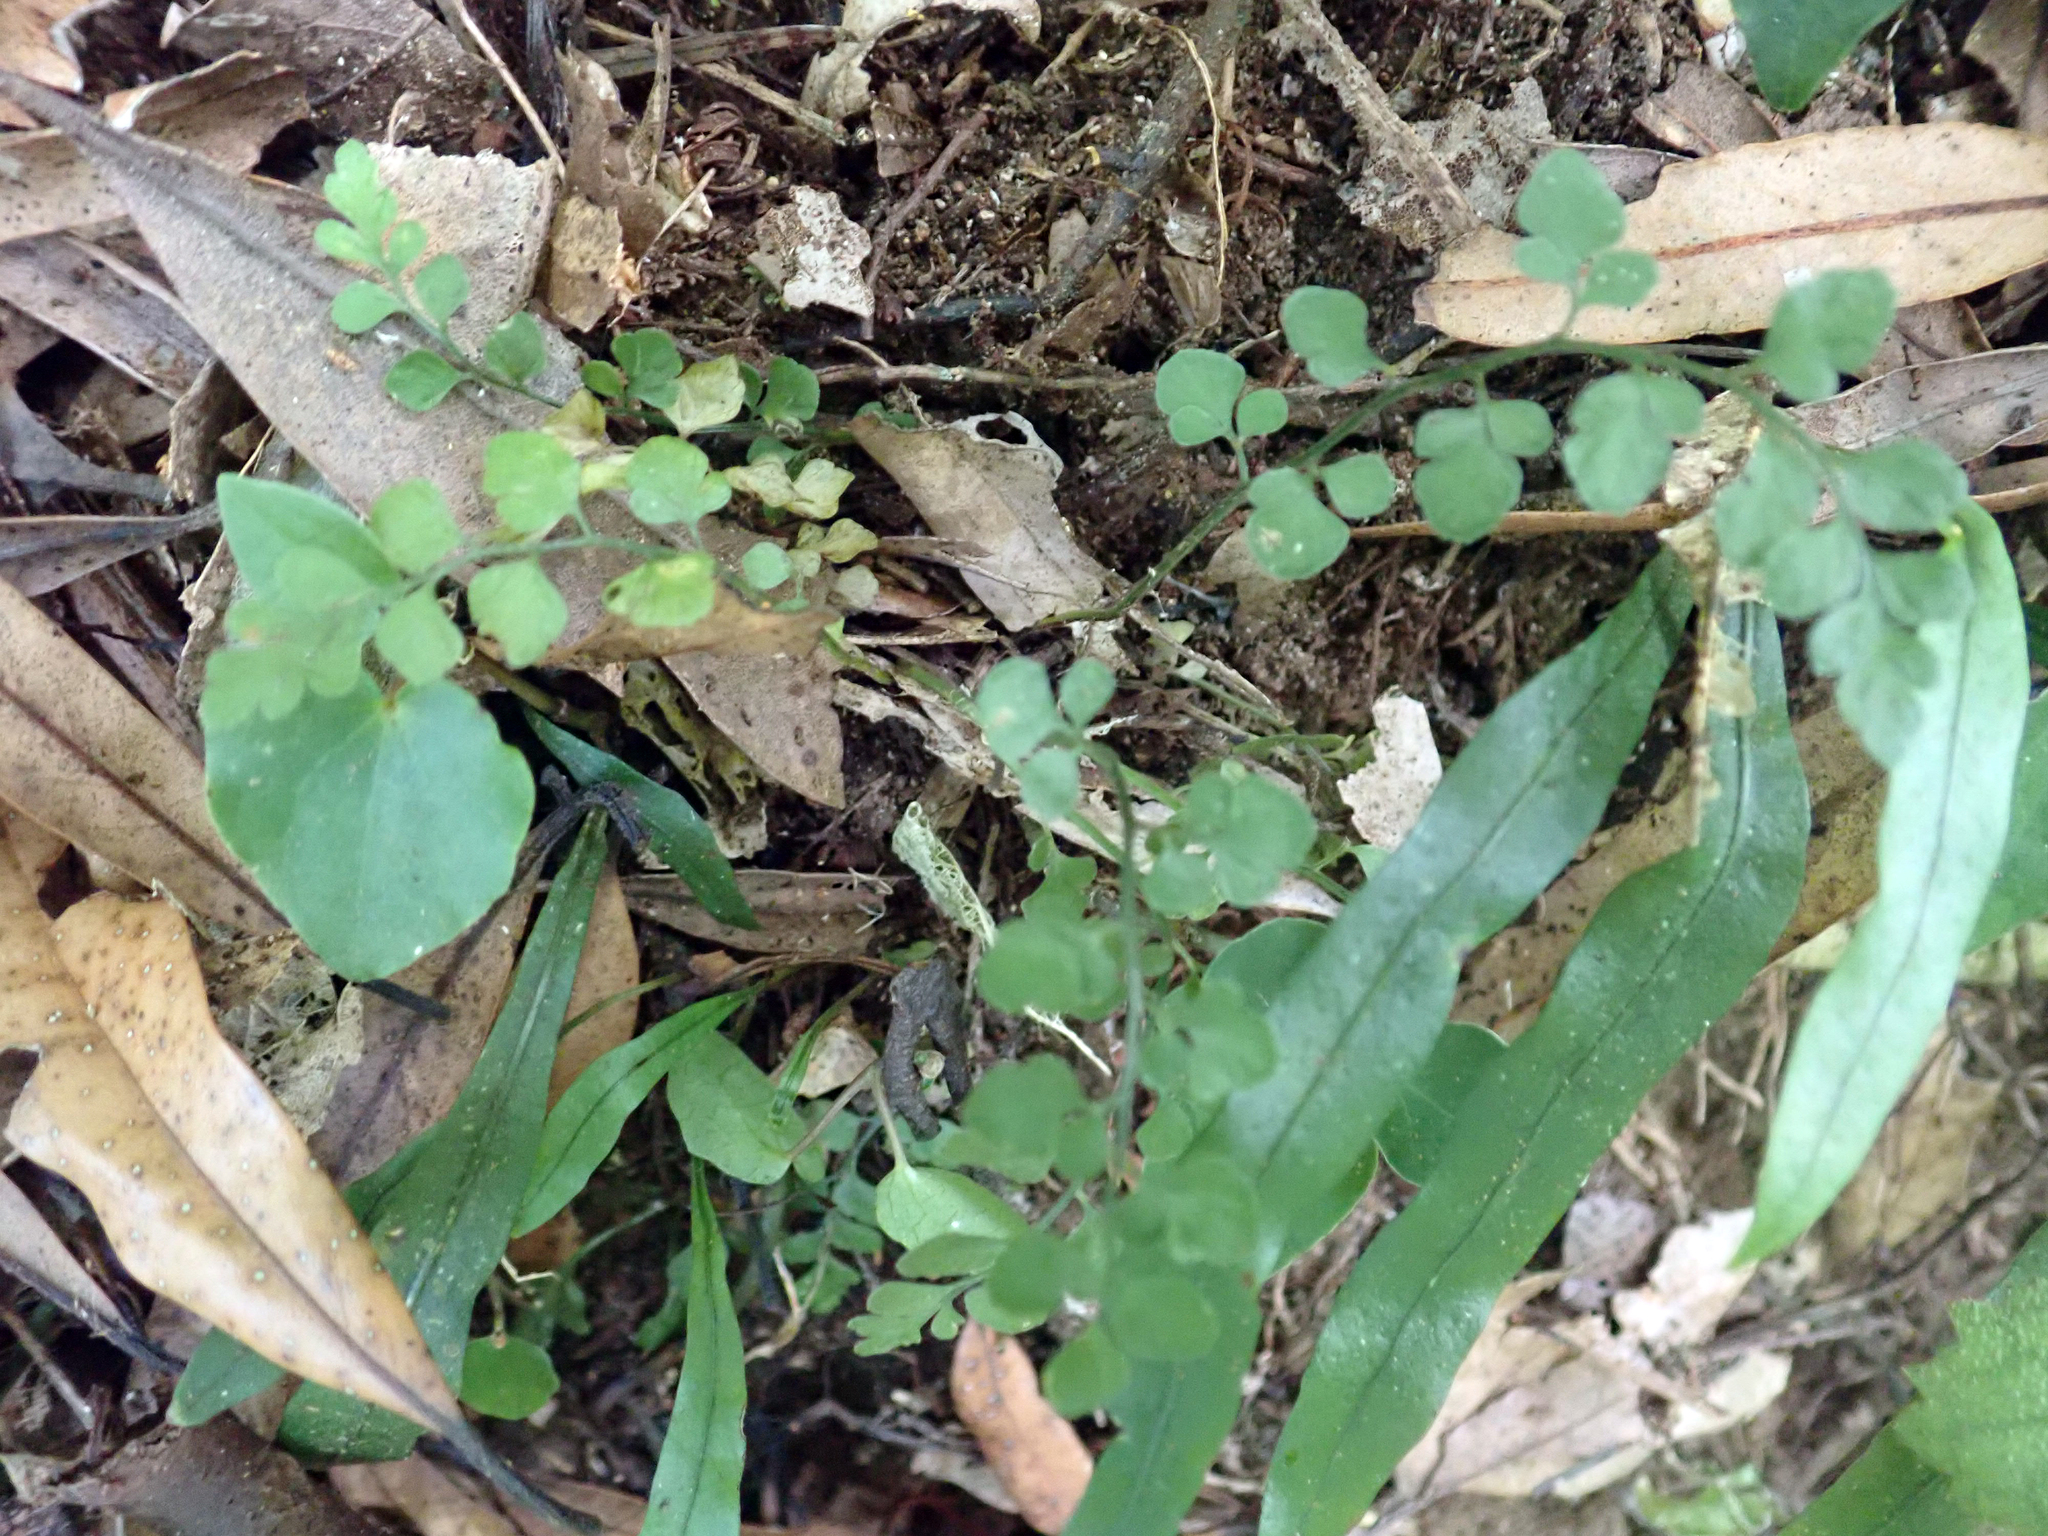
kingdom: Plantae
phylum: Tracheophyta
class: Polypodiopsida
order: Polypodiales
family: Aspleniaceae
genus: Asplenium
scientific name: Asplenium hookerianum
